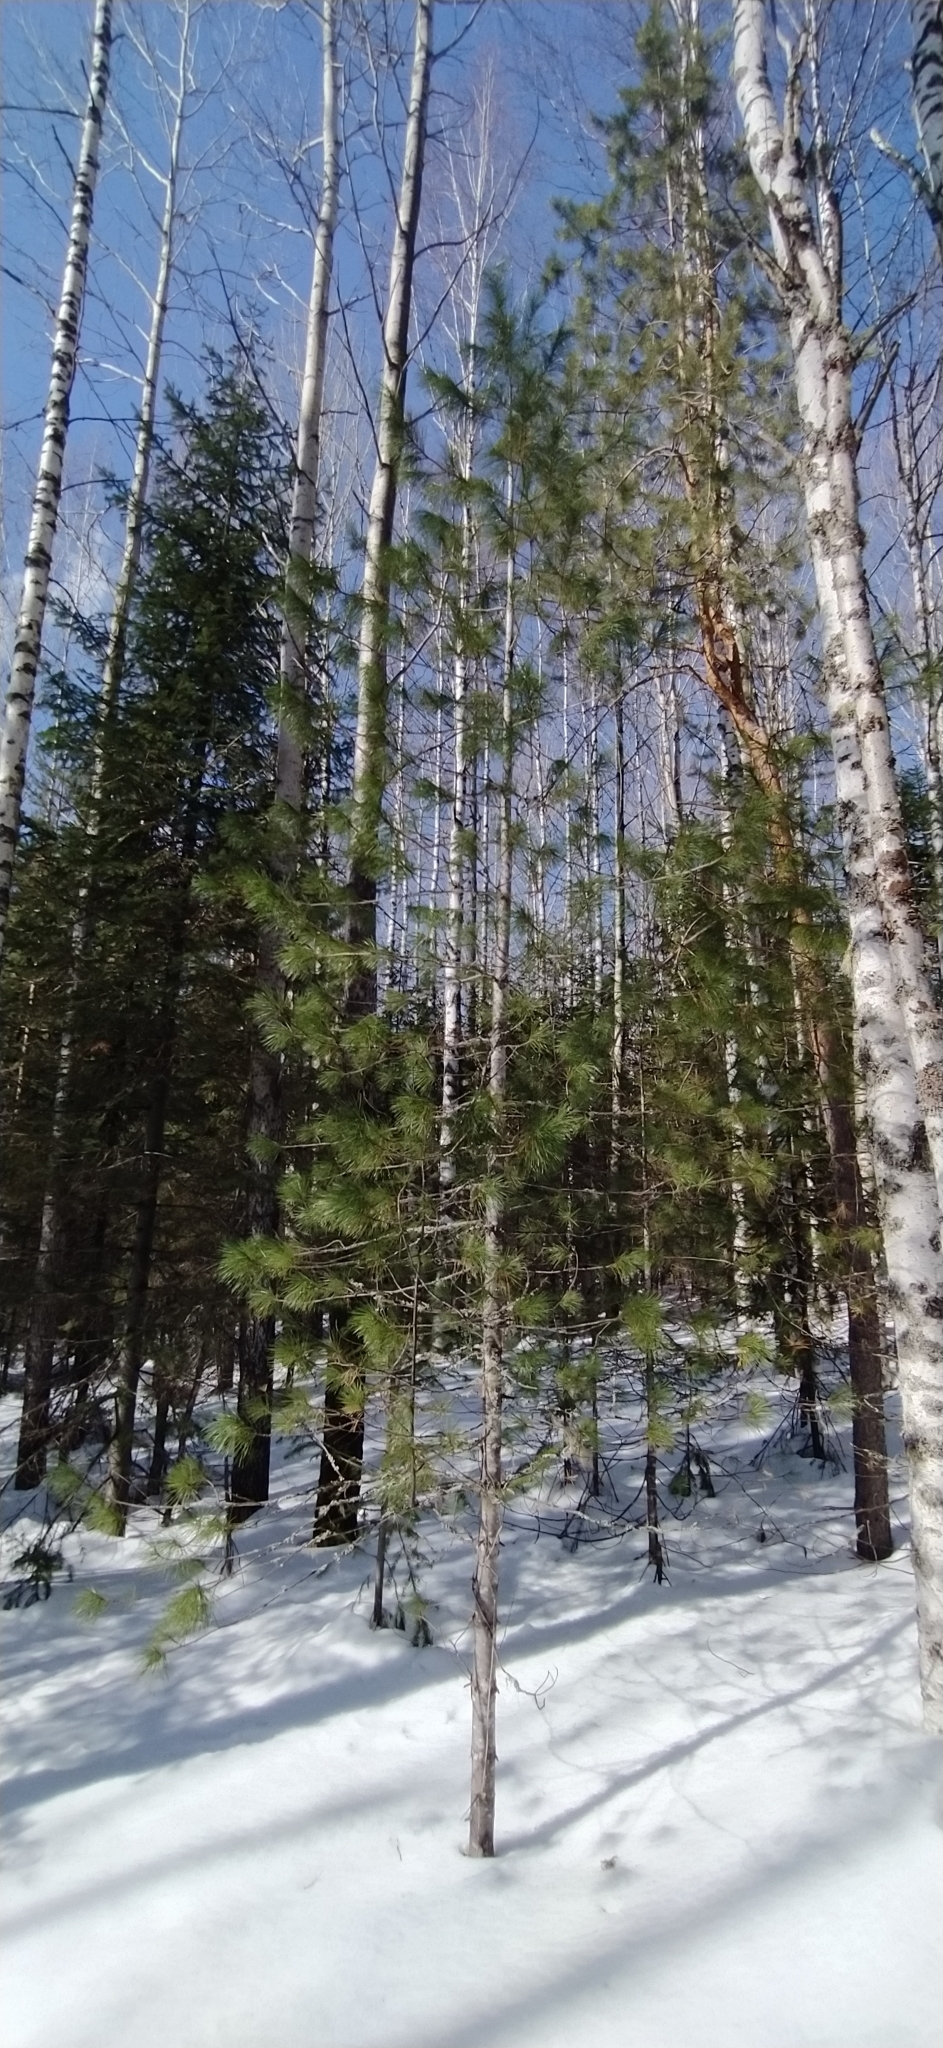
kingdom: Plantae
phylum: Tracheophyta
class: Pinopsida
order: Pinales
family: Pinaceae
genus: Pinus
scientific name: Pinus sibirica
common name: Siberian pine
